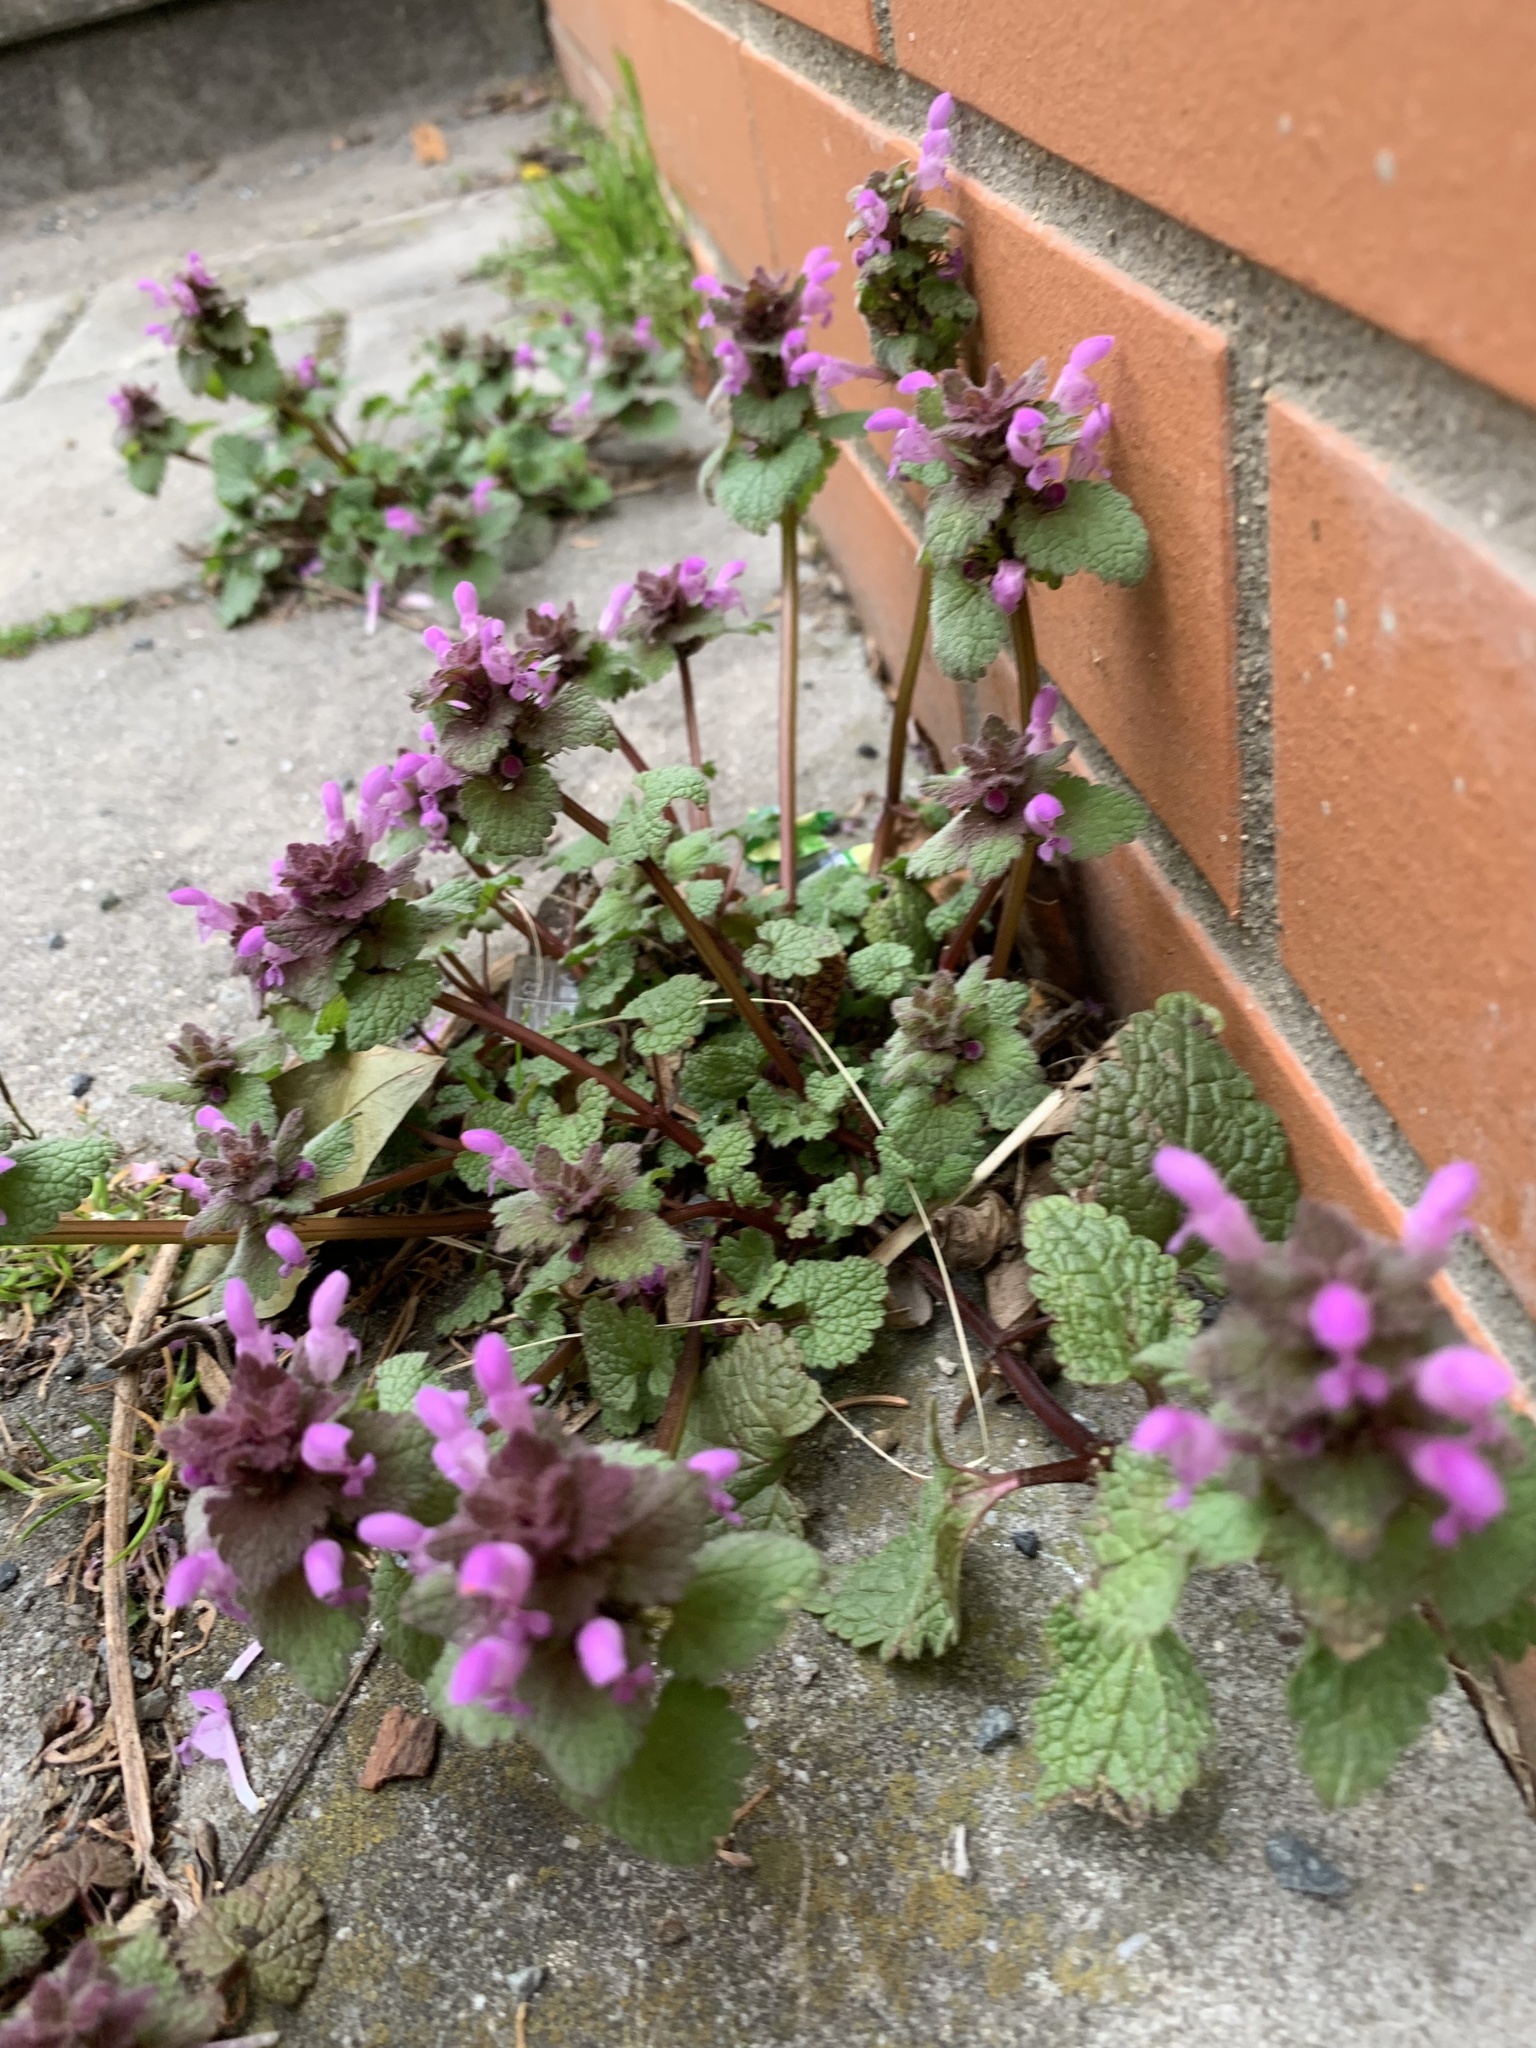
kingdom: Plantae
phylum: Tracheophyta
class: Magnoliopsida
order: Lamiales
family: Lamiaceae
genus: Lamium
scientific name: Lamium purpureum
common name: Red dead-nettle
